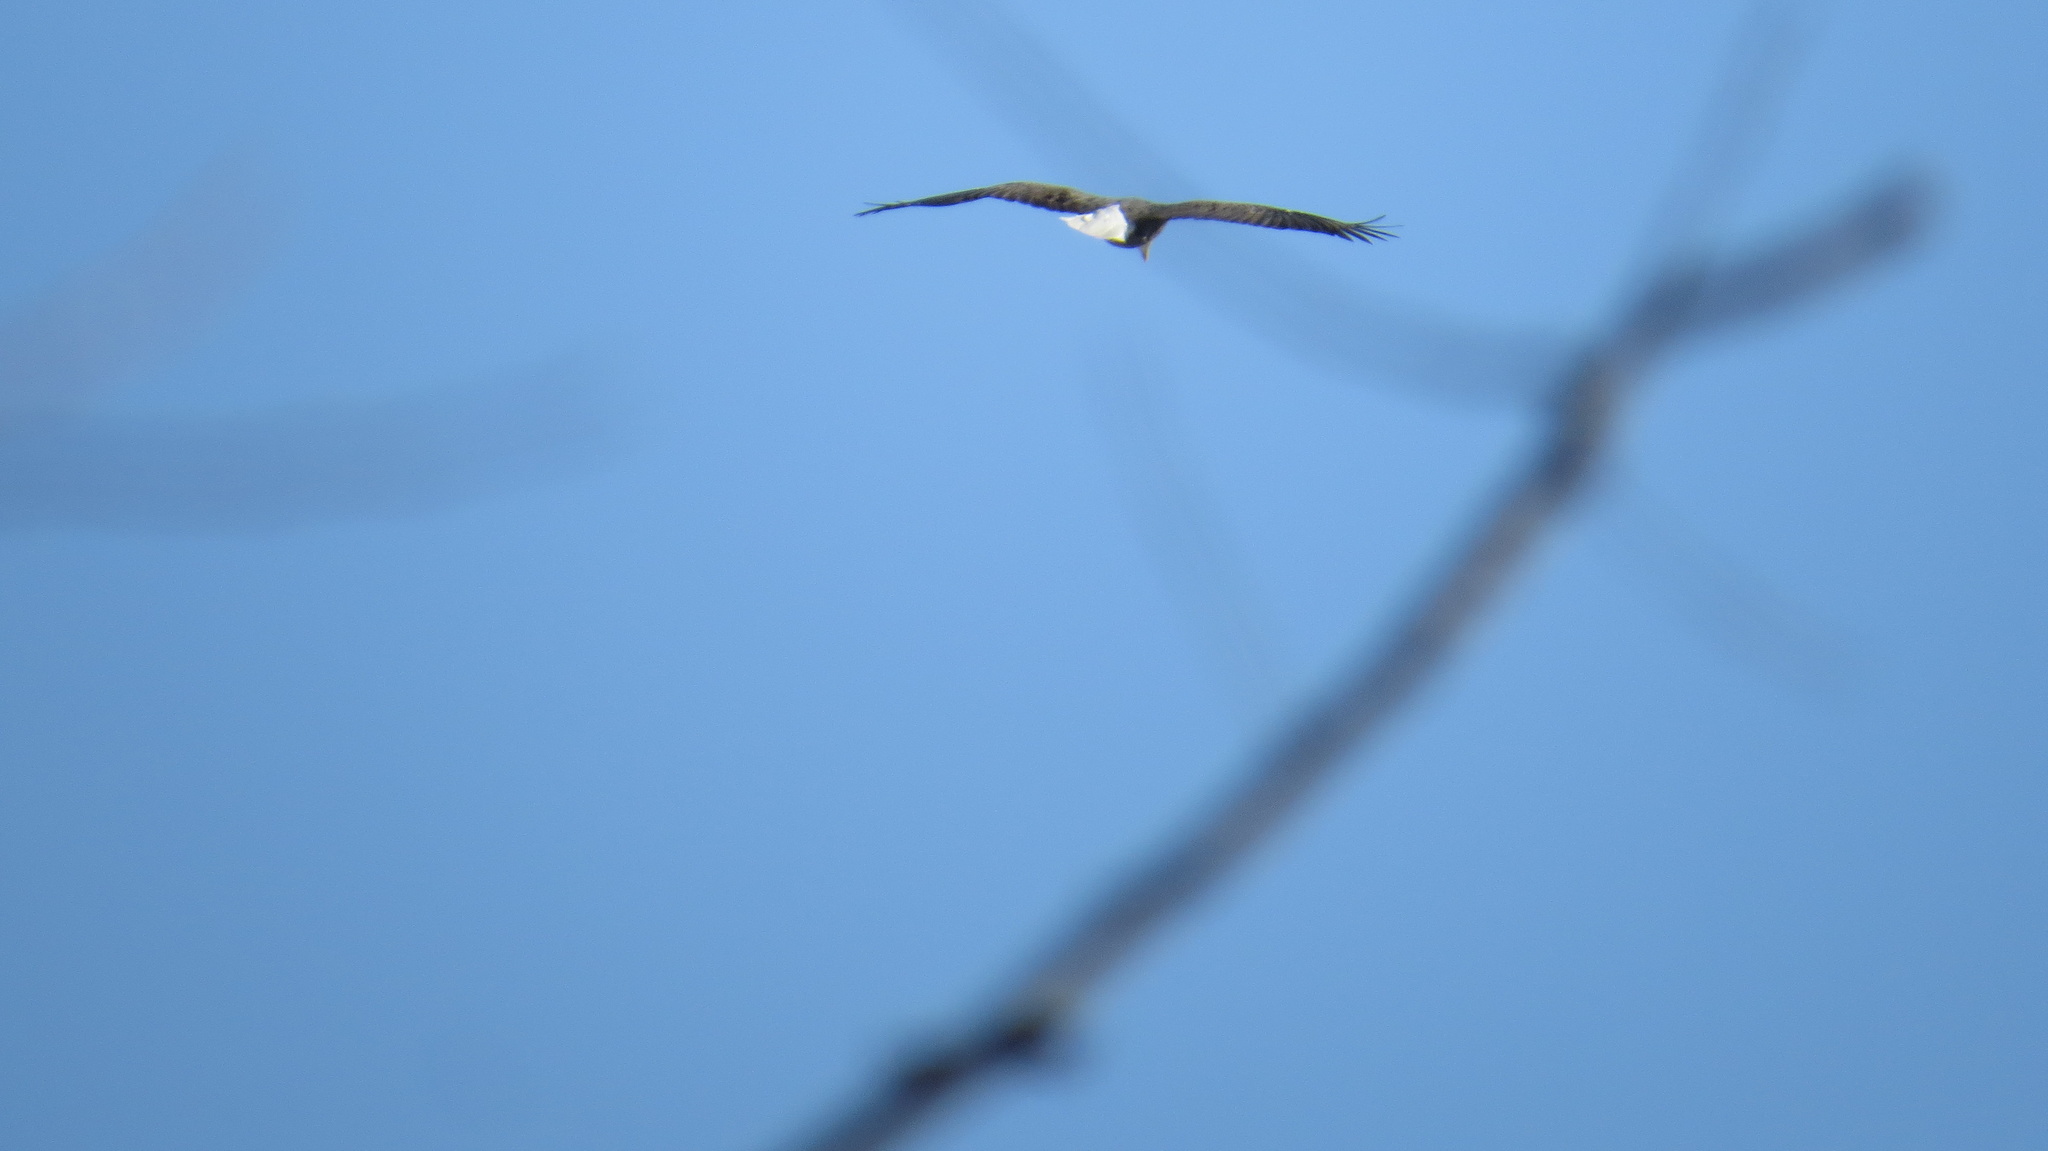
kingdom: Animalia
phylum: Chordata
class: Aves
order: Accipitriformes
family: Accipitridae
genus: Haliaeetus
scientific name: Haliaeetus leucocephalus
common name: Bald eagle
